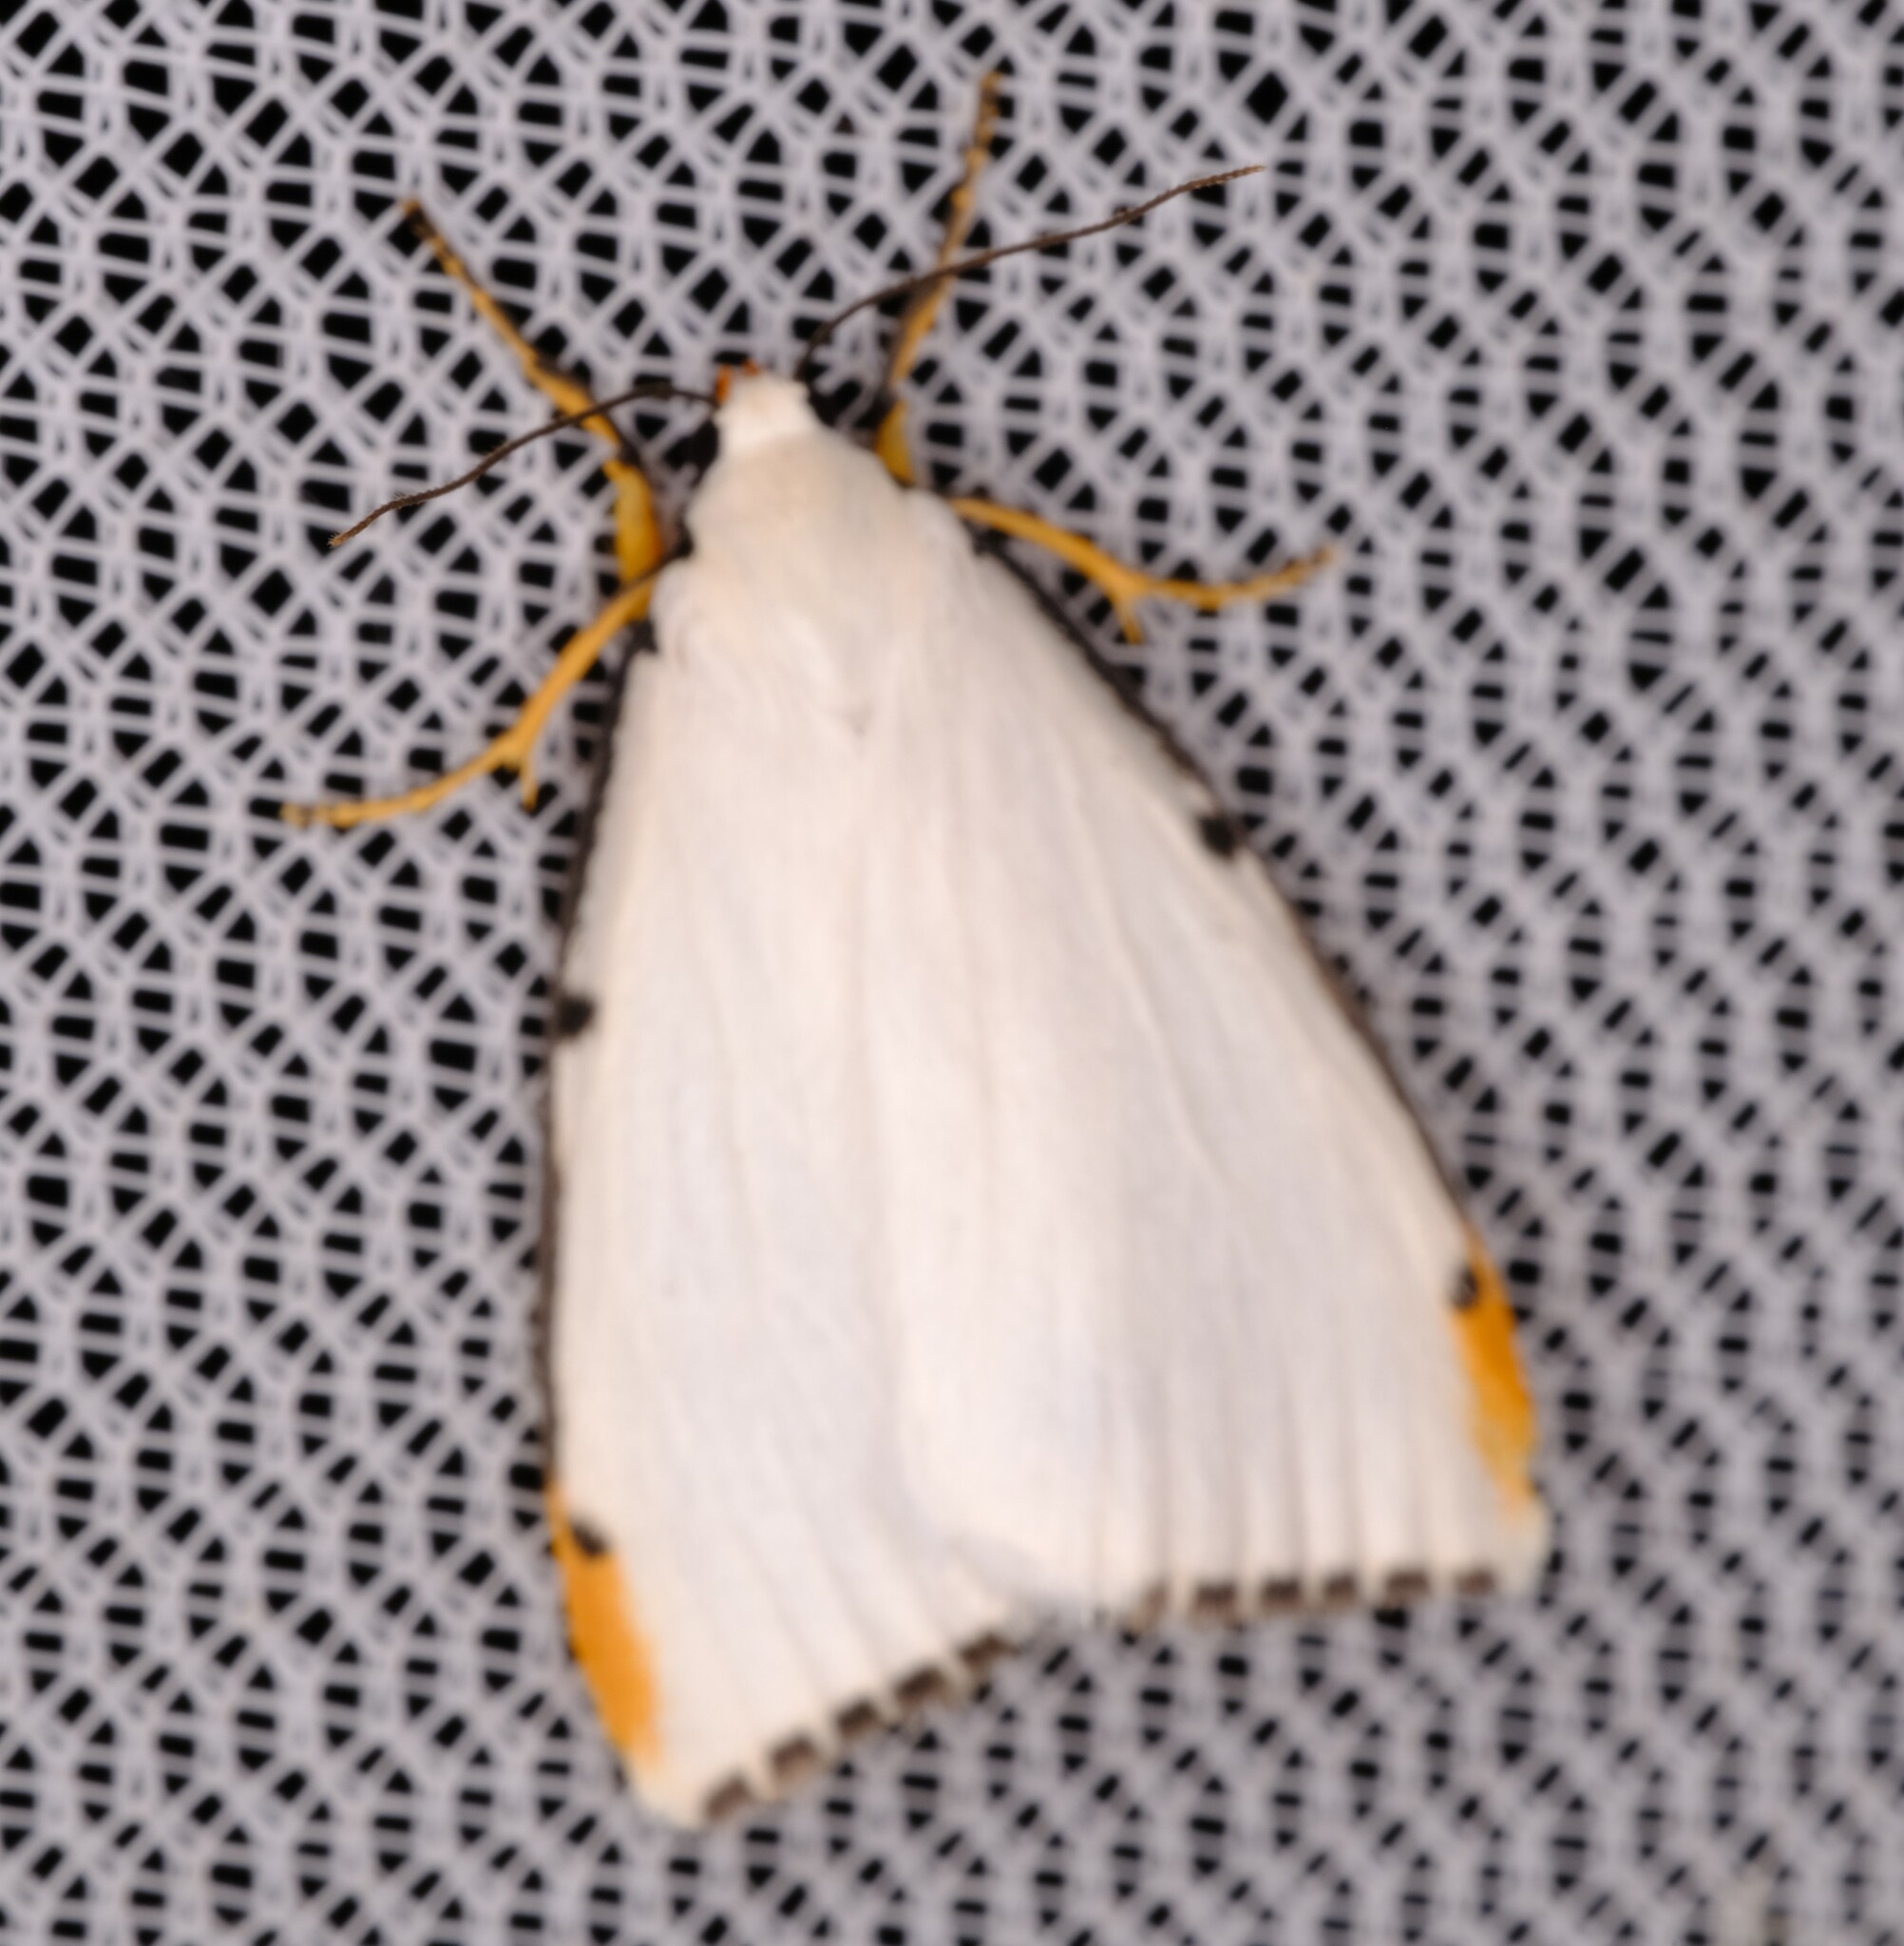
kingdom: Animalia
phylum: Arthropoda
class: Insecta
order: Lepidoptera
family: Erebidae
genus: Termessa
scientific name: Termessa nivosa
